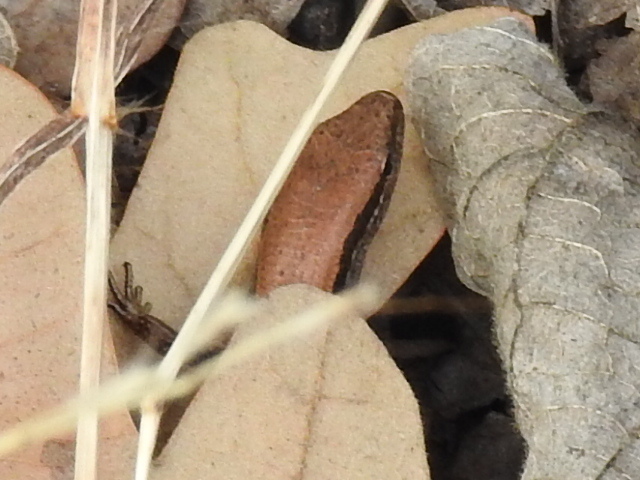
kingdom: Animalia
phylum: Chordata
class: Squamata
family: Scincidae
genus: Scincella
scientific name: Scincella lateralis
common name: Ground skink
